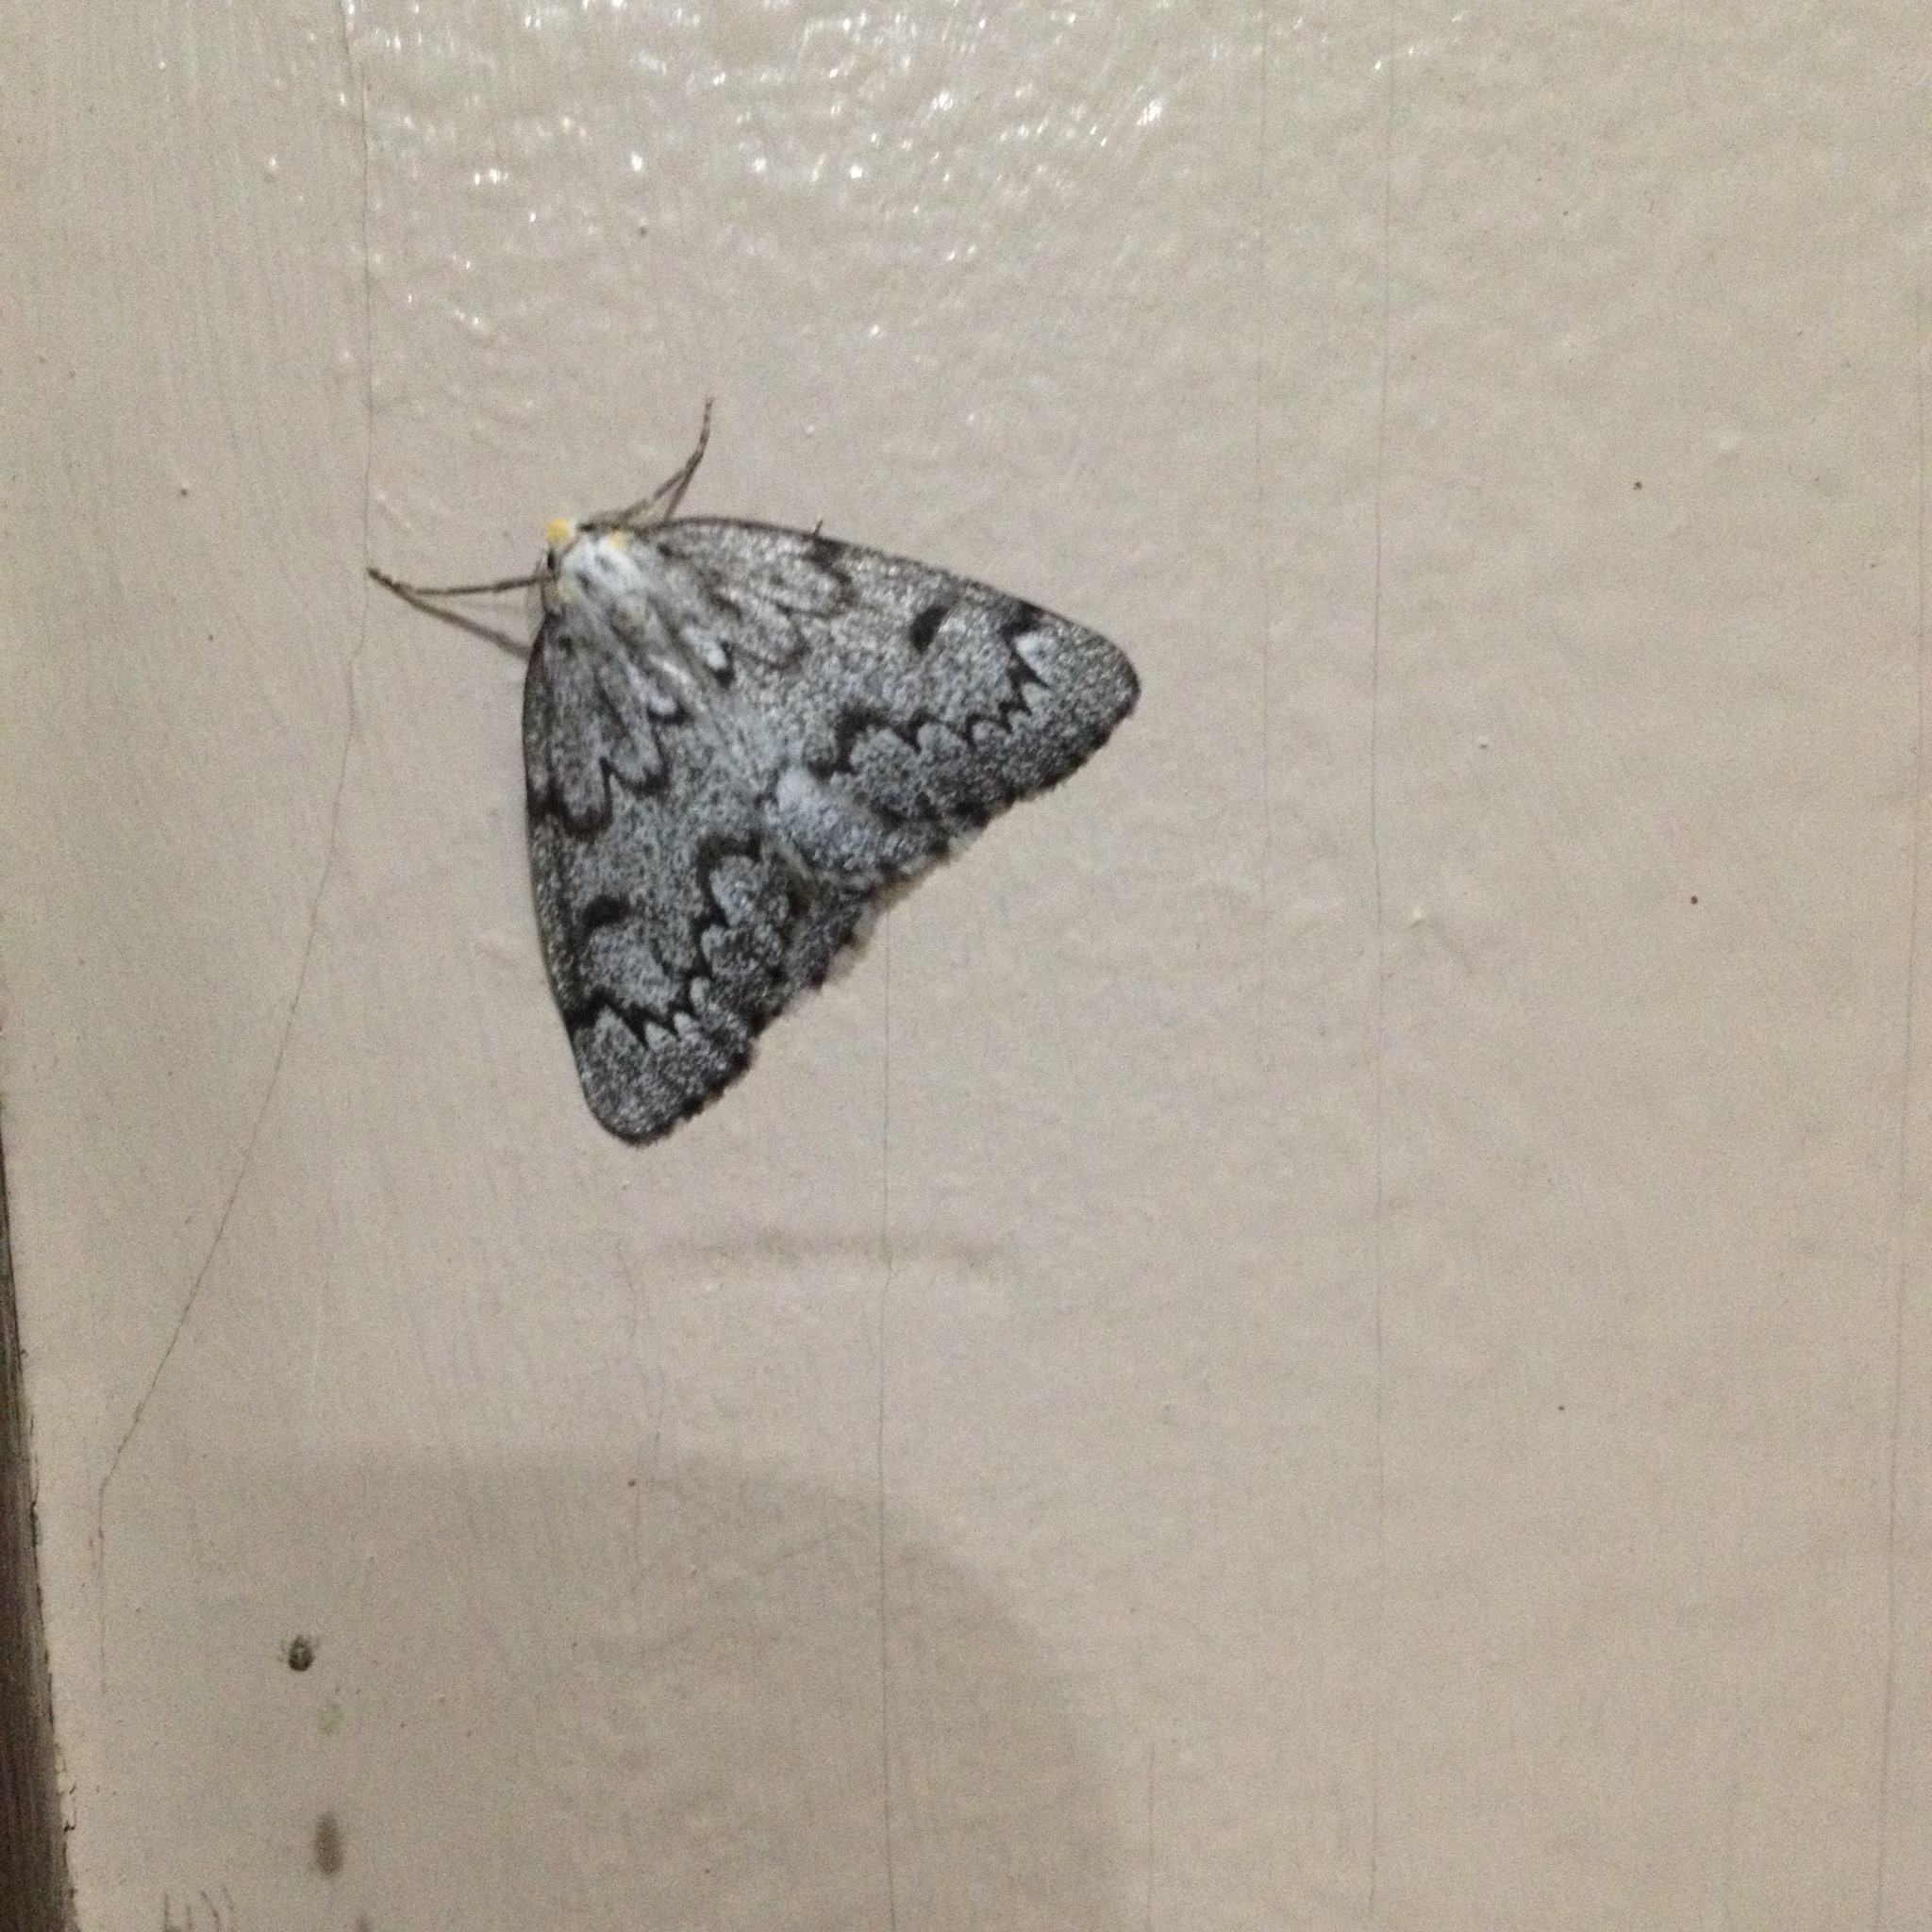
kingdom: Animalia
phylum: Arthropoda
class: Insecta
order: Lepidoptera
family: Geometridae
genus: Nepytia
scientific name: Nepytia canosaria
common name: False hemlock looper
